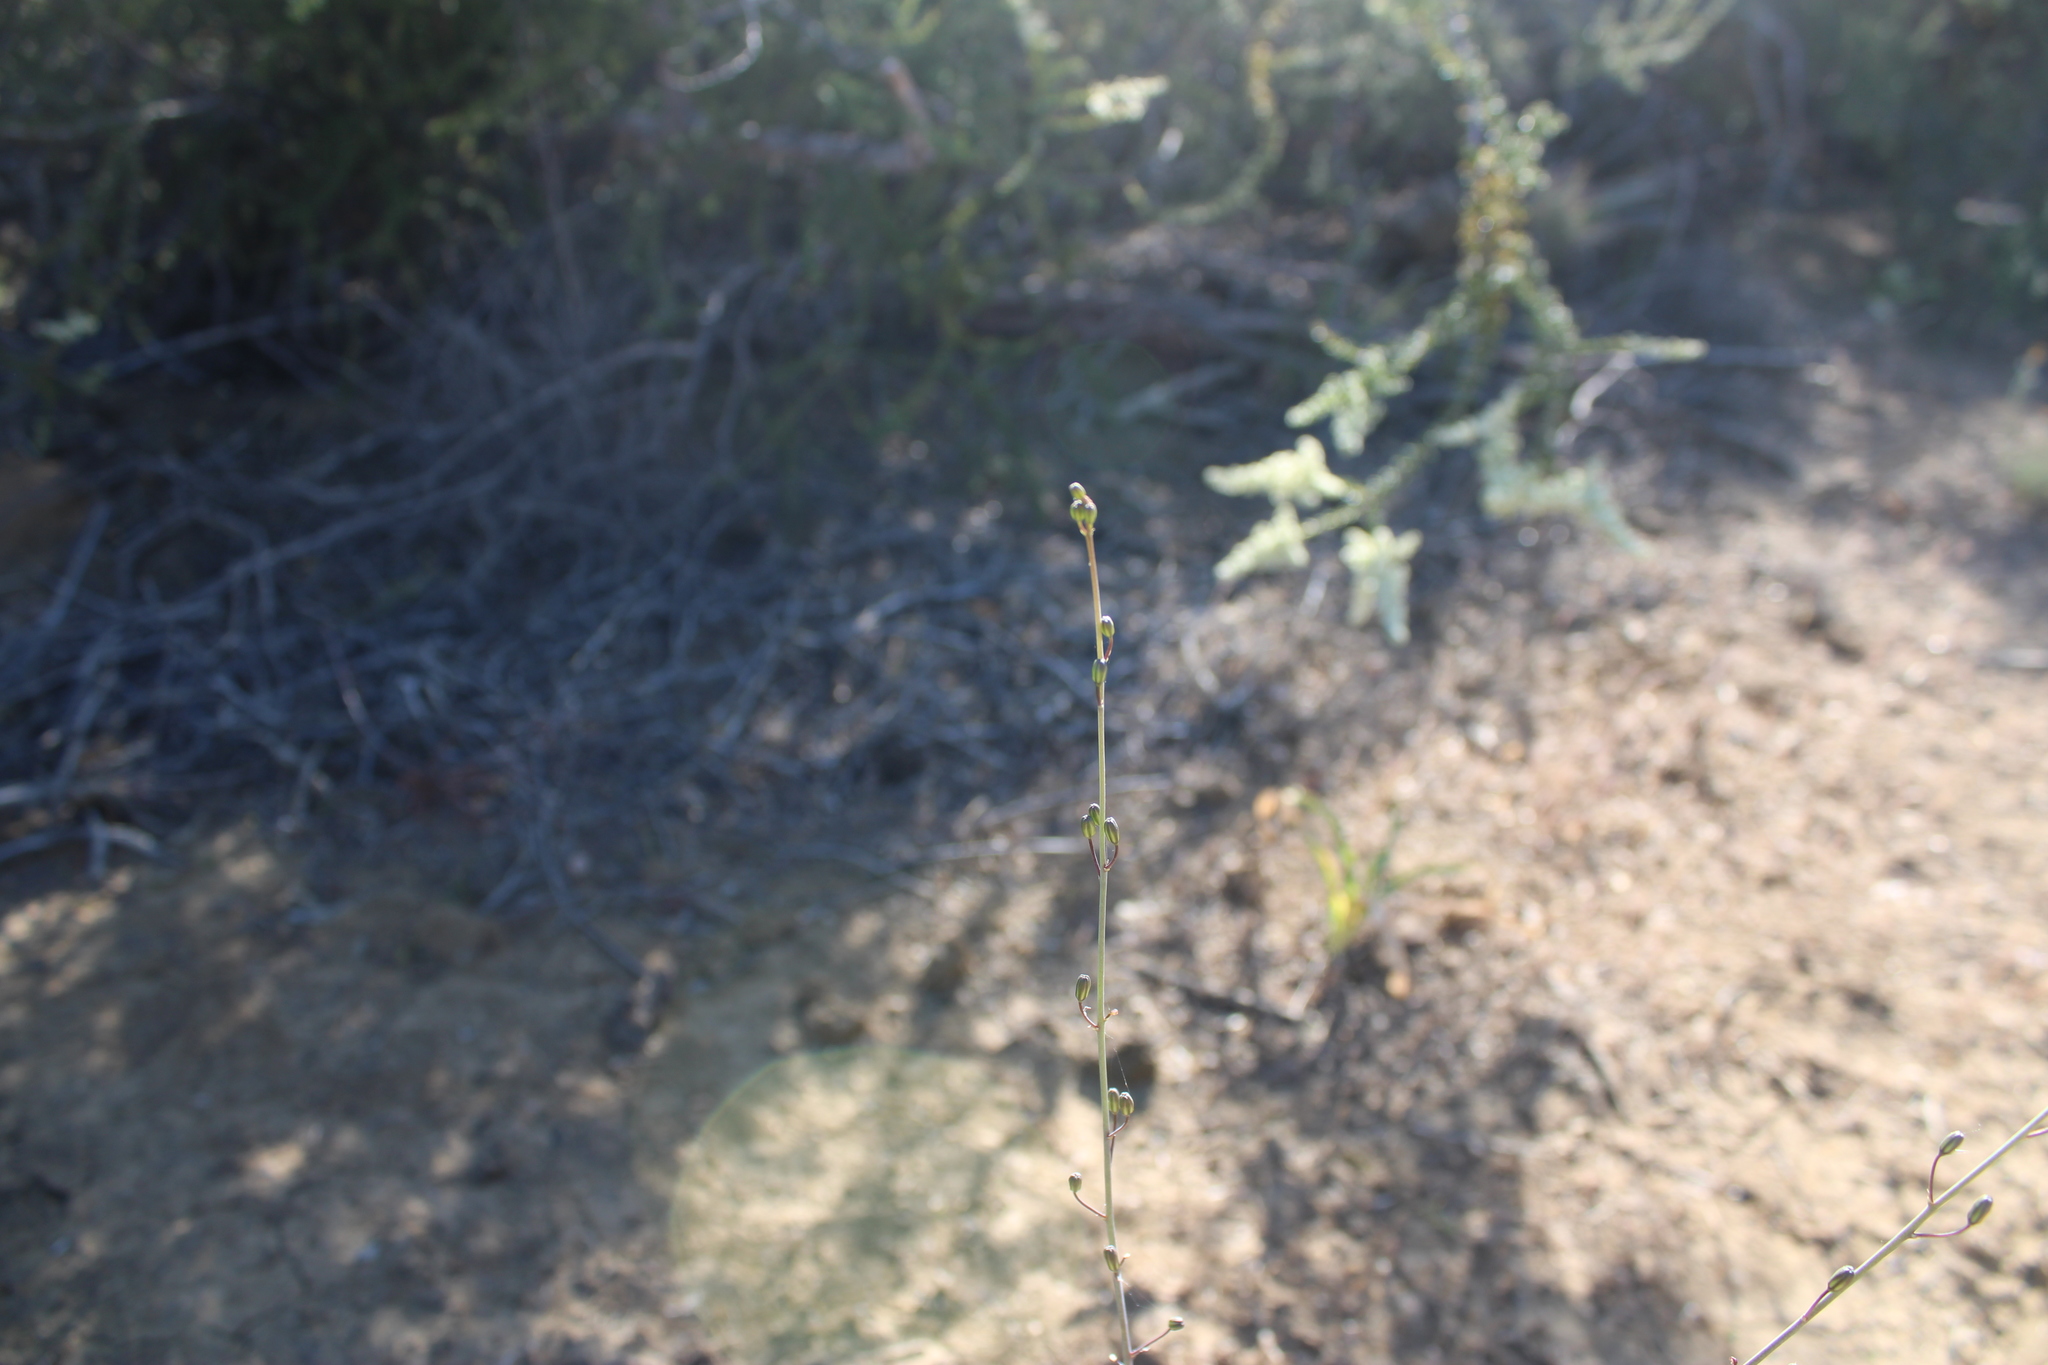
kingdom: Plantae
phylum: Tracheophyta
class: Liliopsida
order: Asparagales
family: Asparagaceae
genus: Chlorogalum
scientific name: Chlorogalum pomeridianum
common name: Amole
